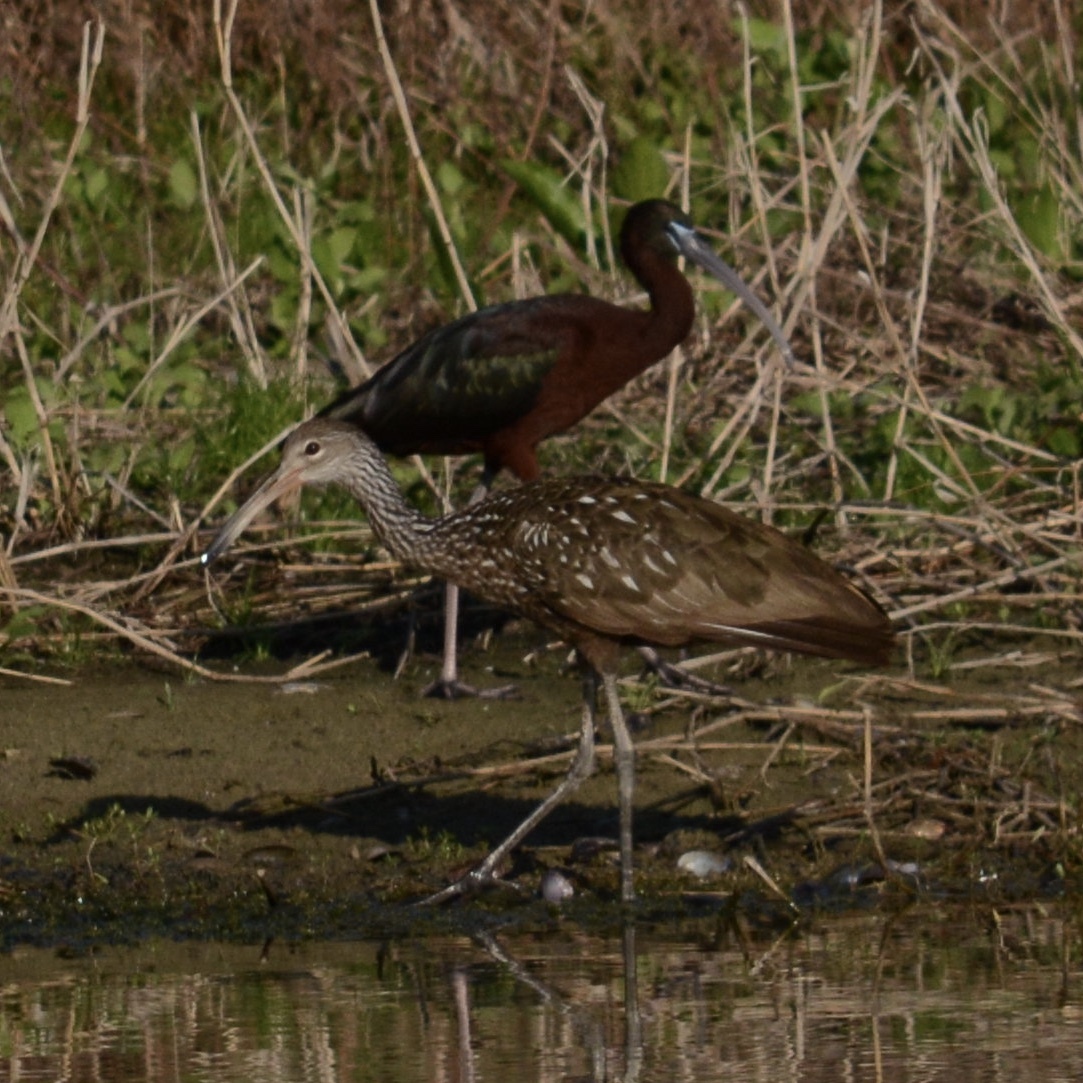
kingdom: Animalia
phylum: Chordata
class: Aves
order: Gruiformes
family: Aramidae
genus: Aramus
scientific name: Aramus guarauna
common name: Limpkin
